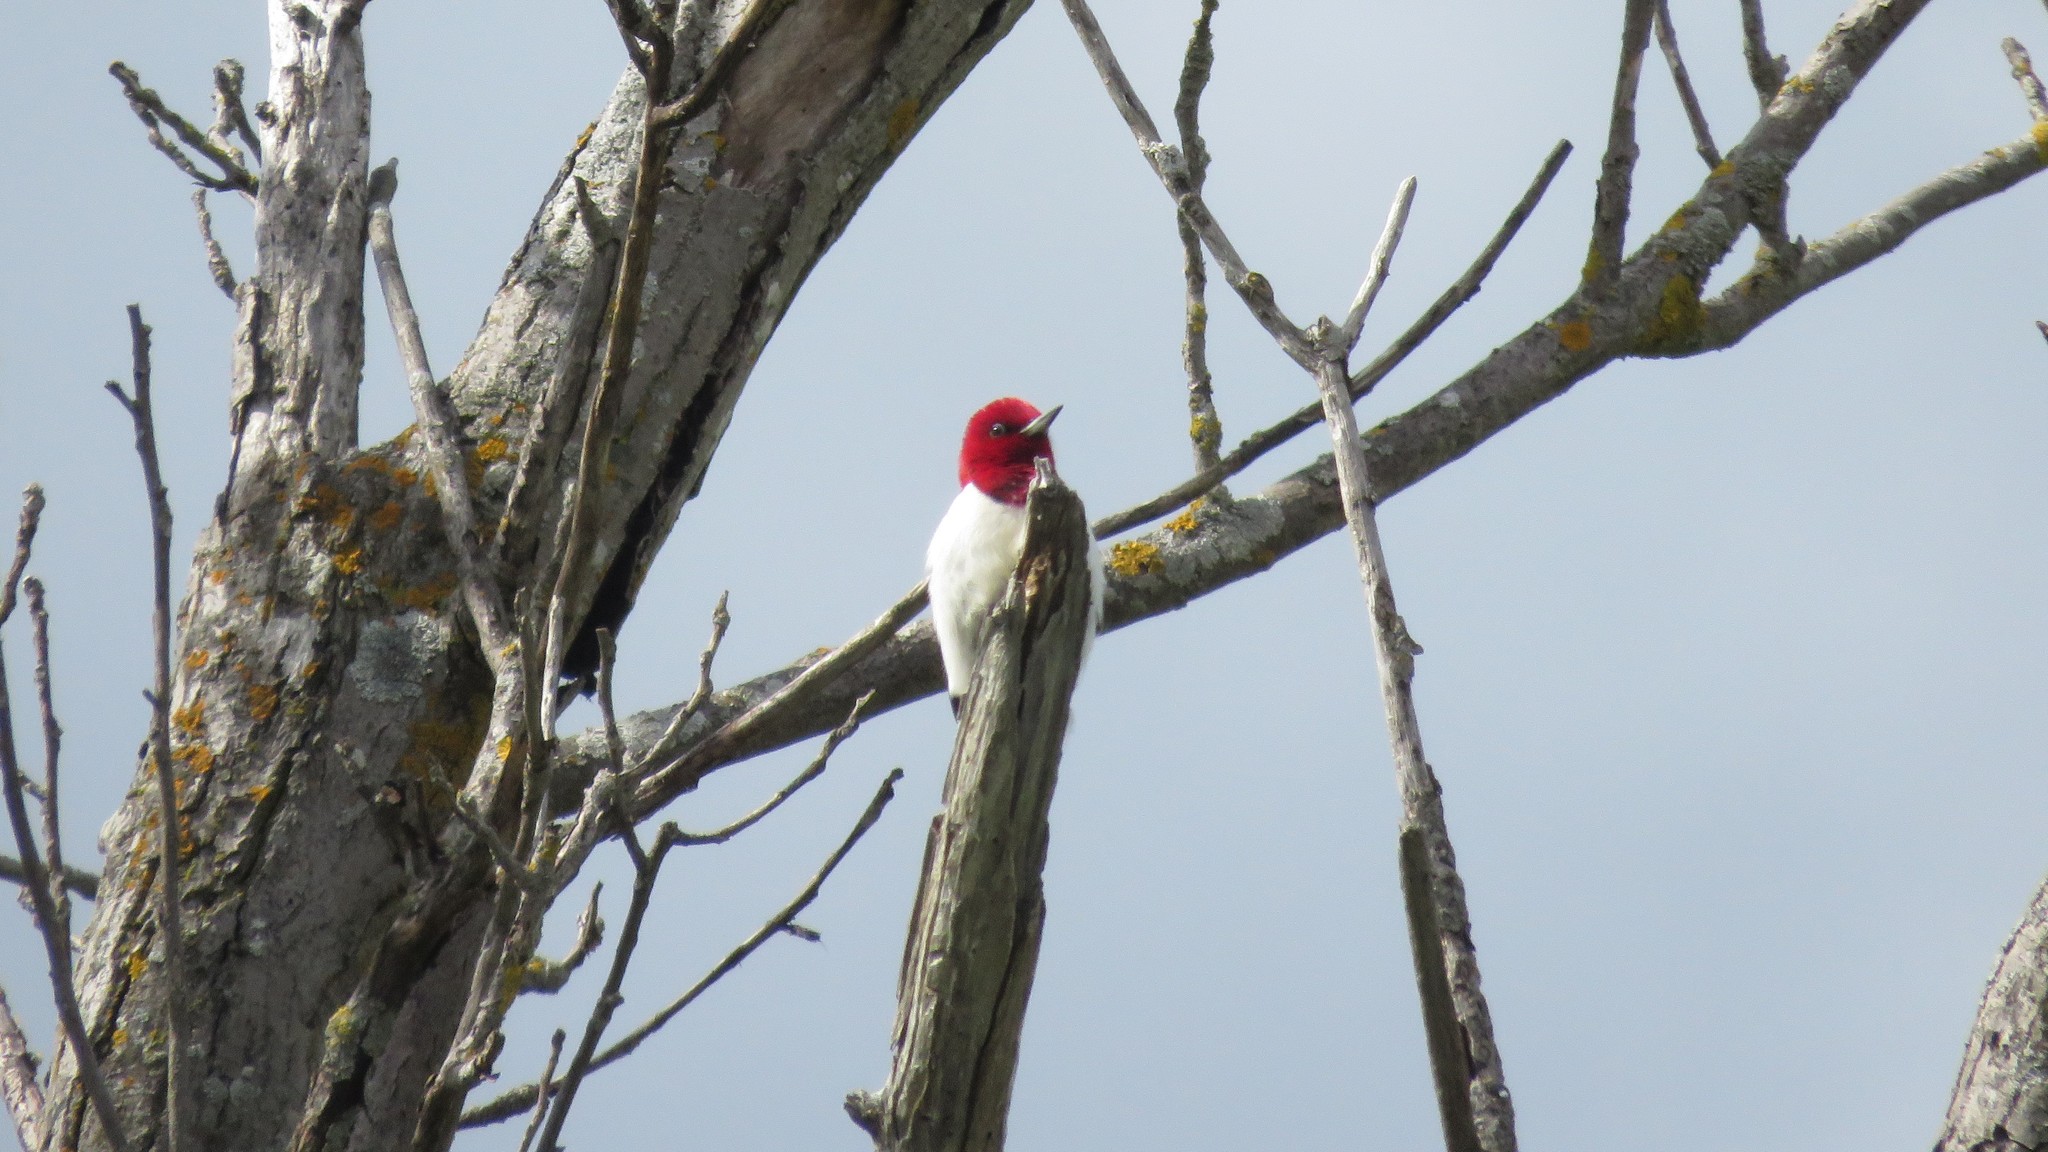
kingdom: Animalia
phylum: Chordata
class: Aves
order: Piciformes
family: Picidae
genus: Melanerpes
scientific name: Melanerpes erythrocephalus
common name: Red-headed woodpecker
